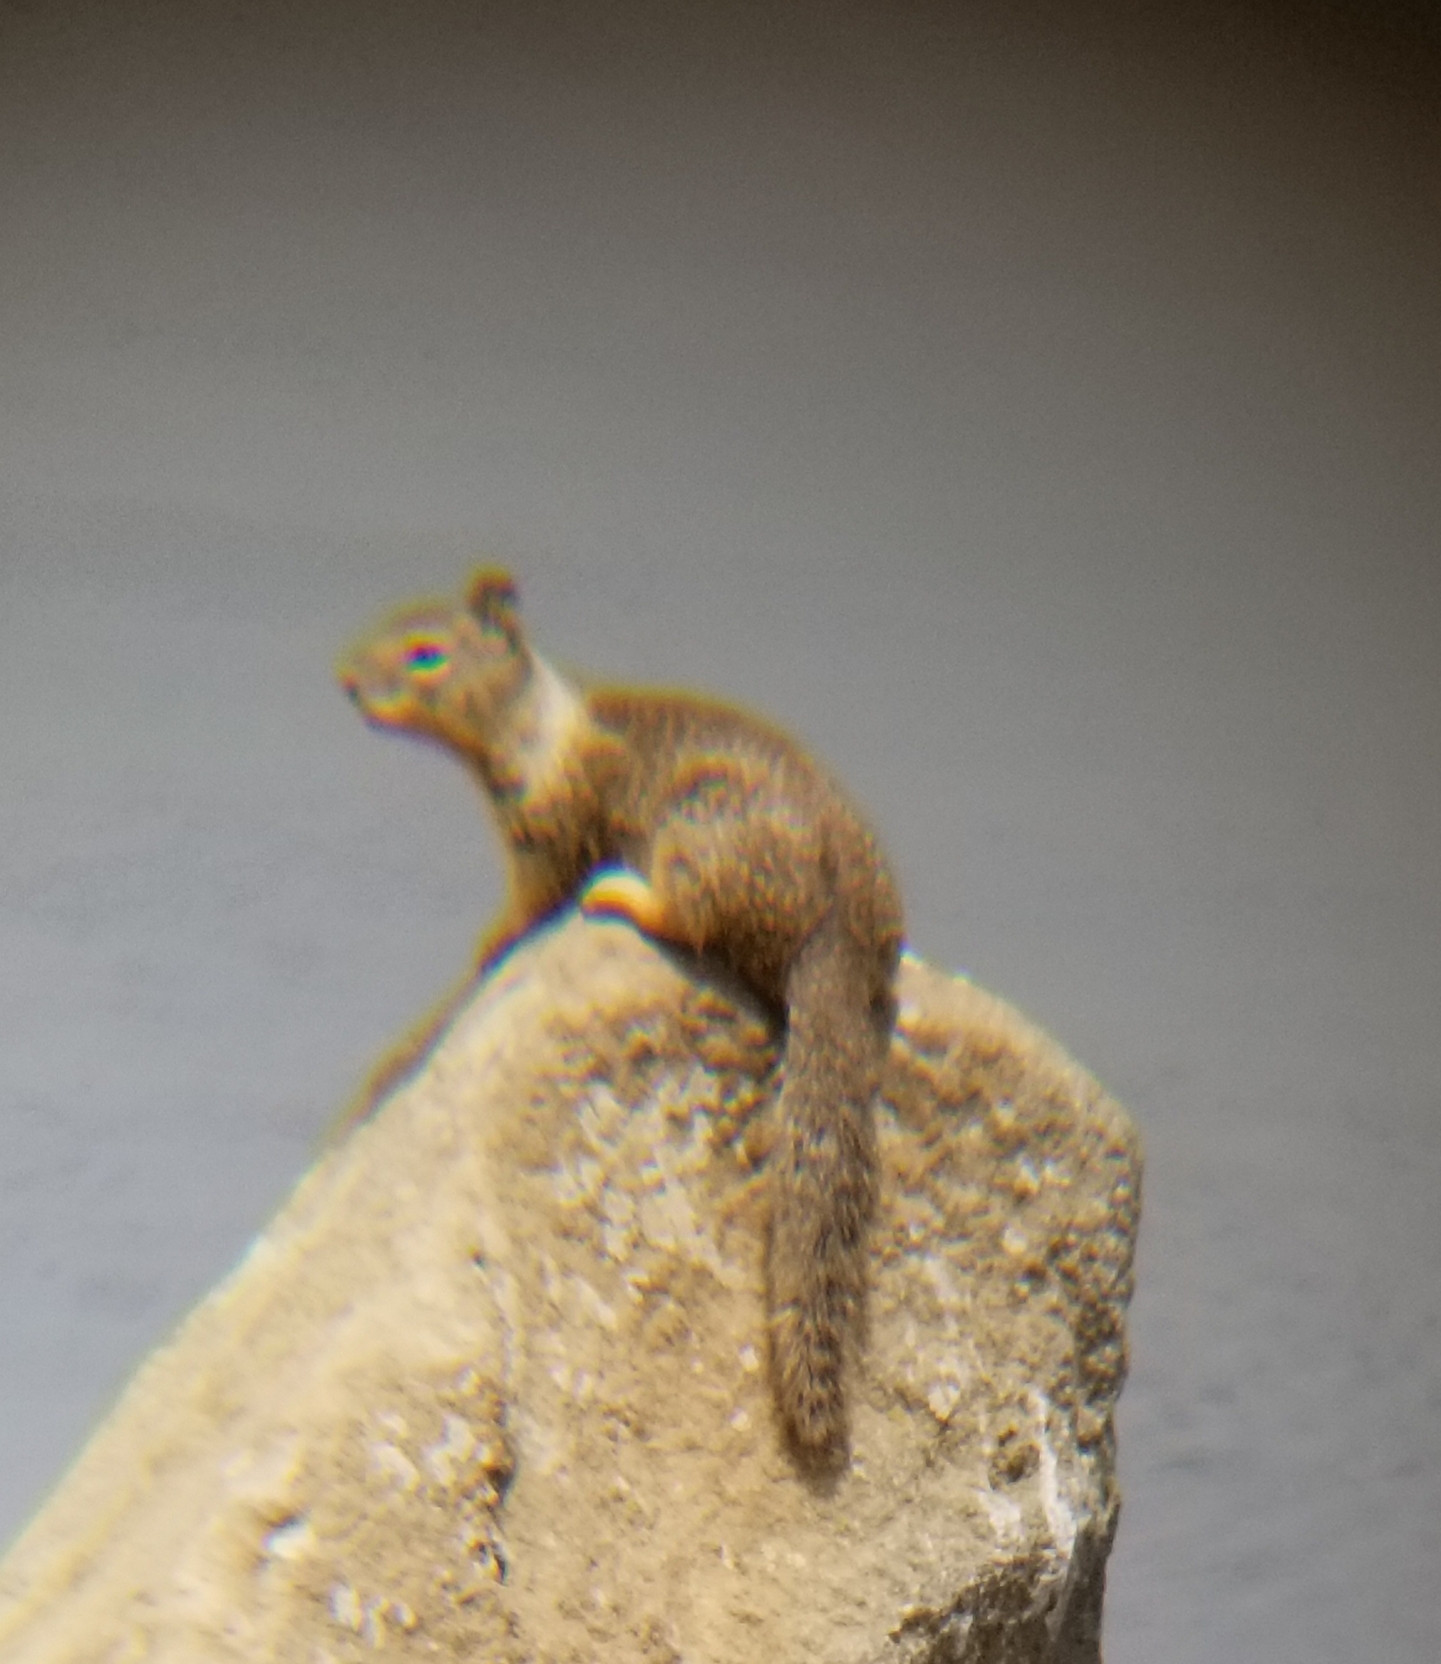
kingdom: Animalia
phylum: Chordata
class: Mammalia
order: Rodentia
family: Sciuridae
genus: Otospermophilus
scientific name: Otospermophilus beecheyi
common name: California ground squirrel
